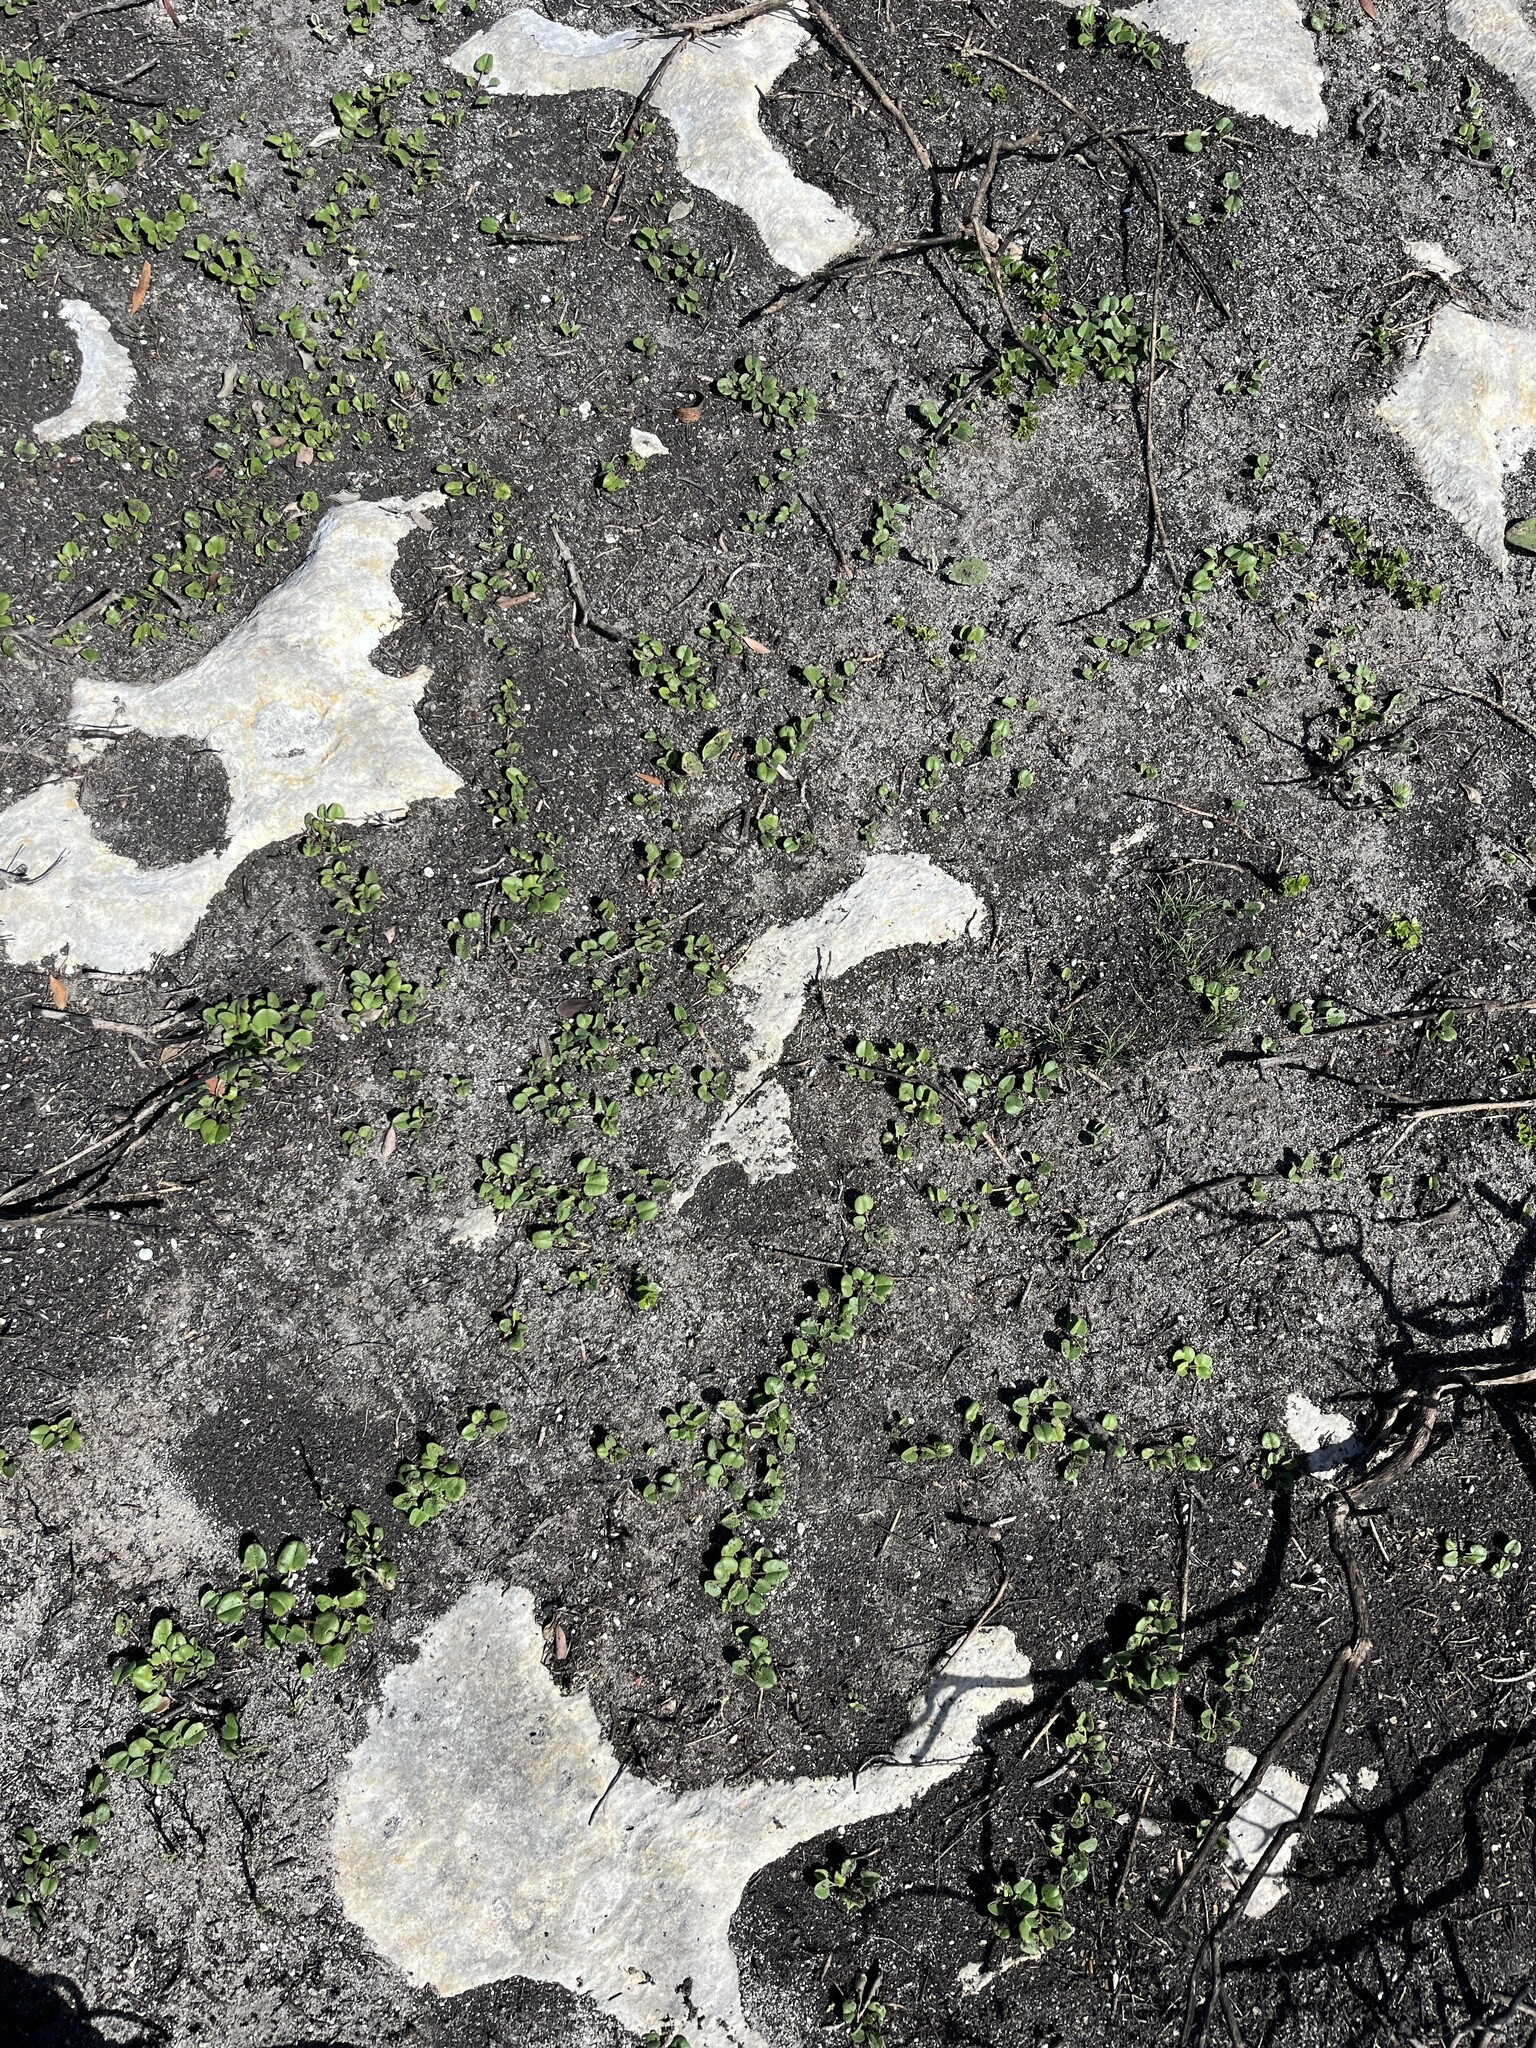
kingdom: Plantae
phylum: Tracheophyta
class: Magnoliopsida
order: Solanales
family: Convolvulaceae
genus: Falkia
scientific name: Falkia repens
